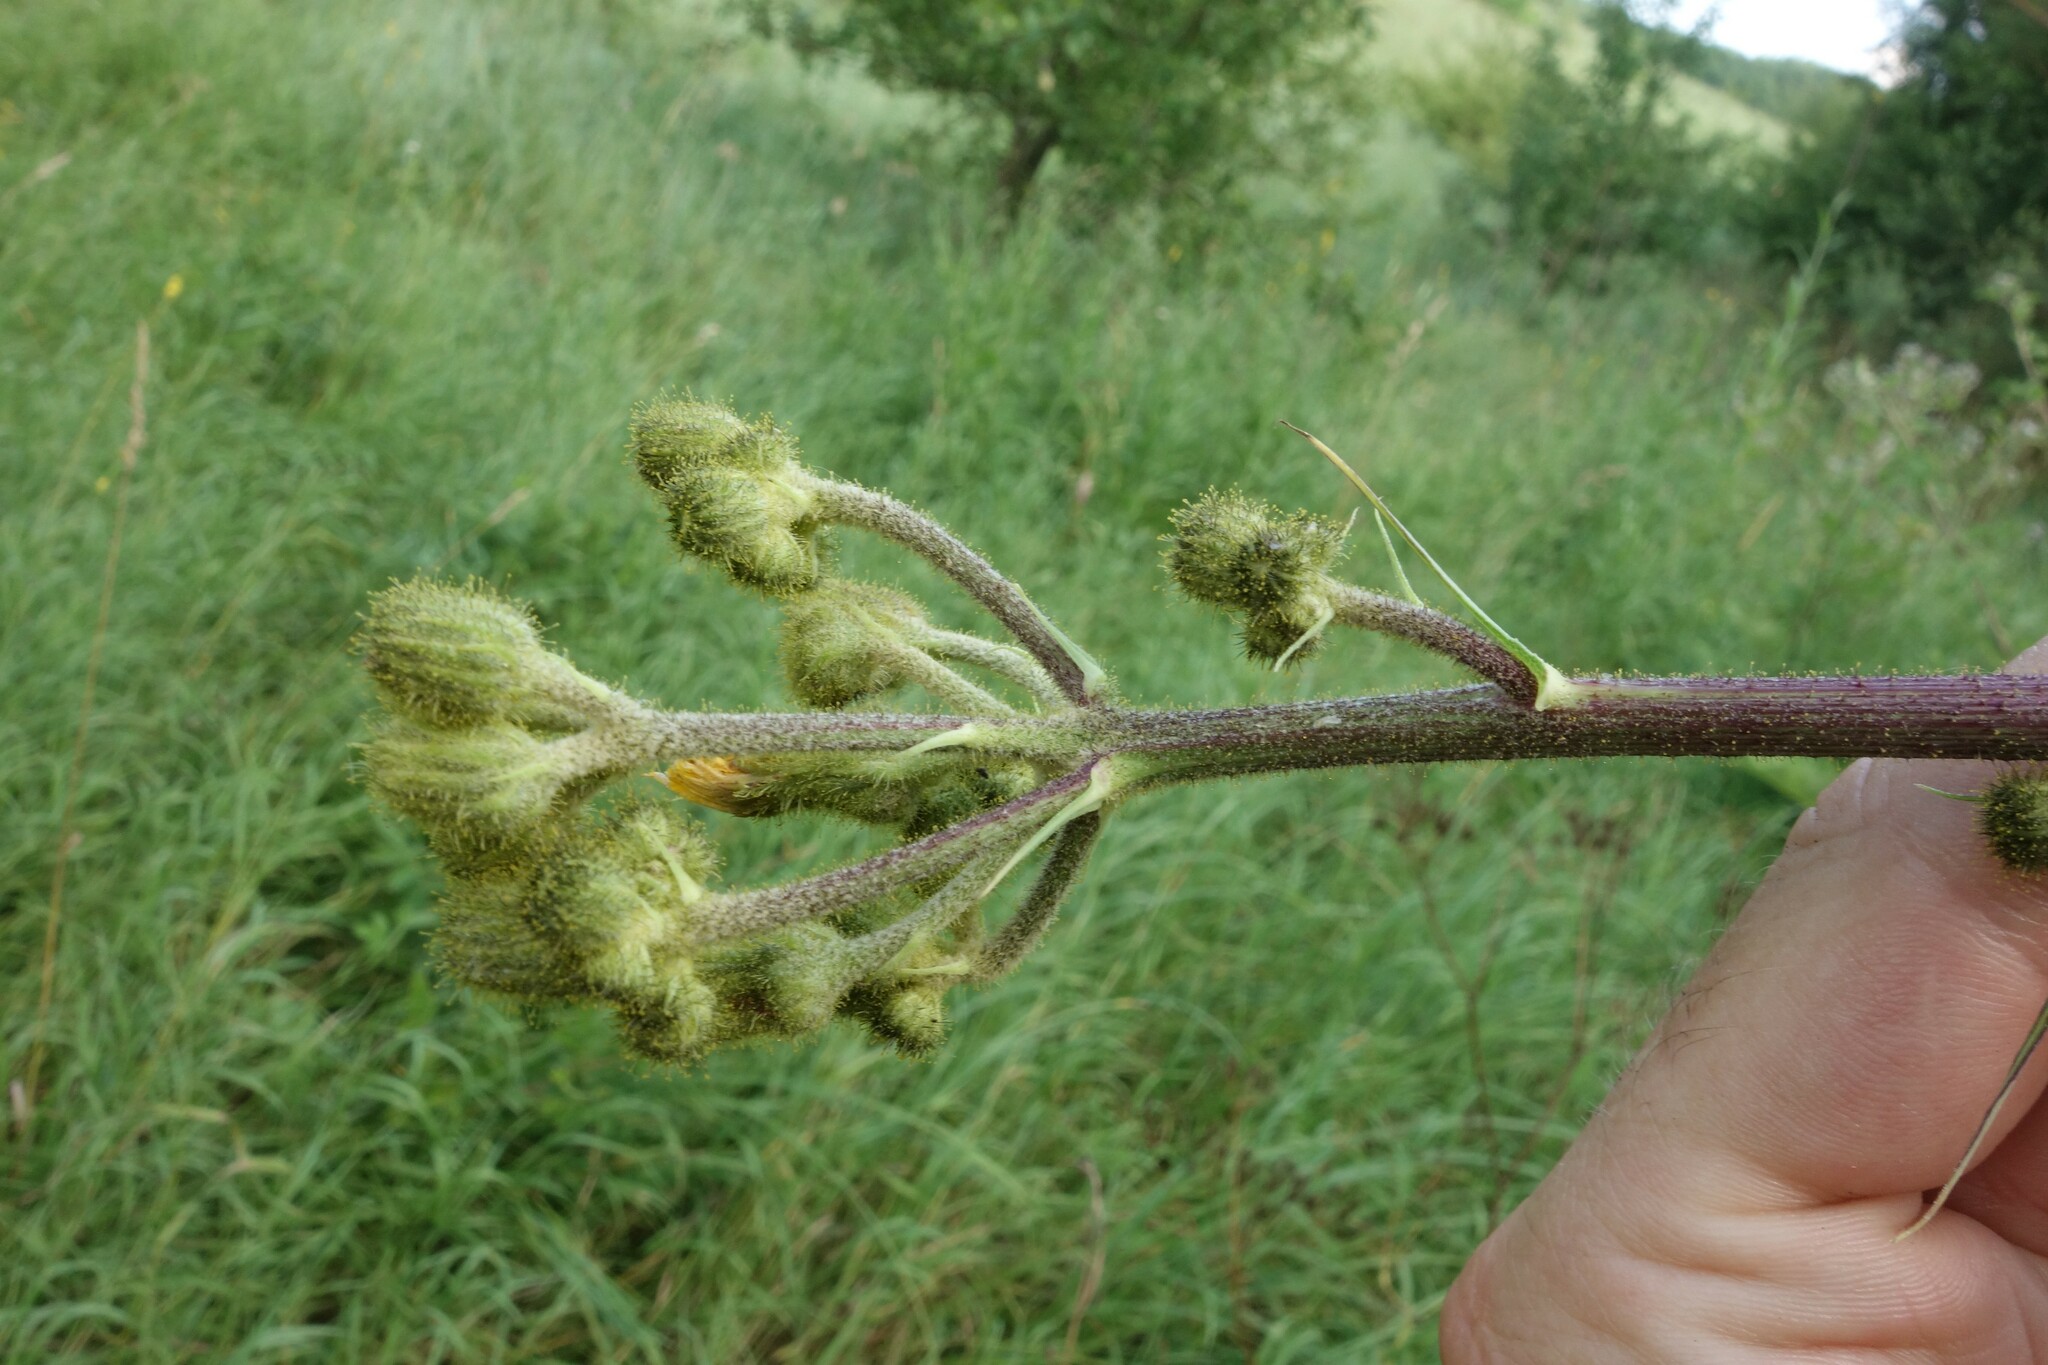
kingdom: Plantae
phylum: Tracheophyta
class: Magnoliopsida
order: Asterales
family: Asteraceae
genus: Sonchus
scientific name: Sonchus palustris
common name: Marsh sow-thistle
